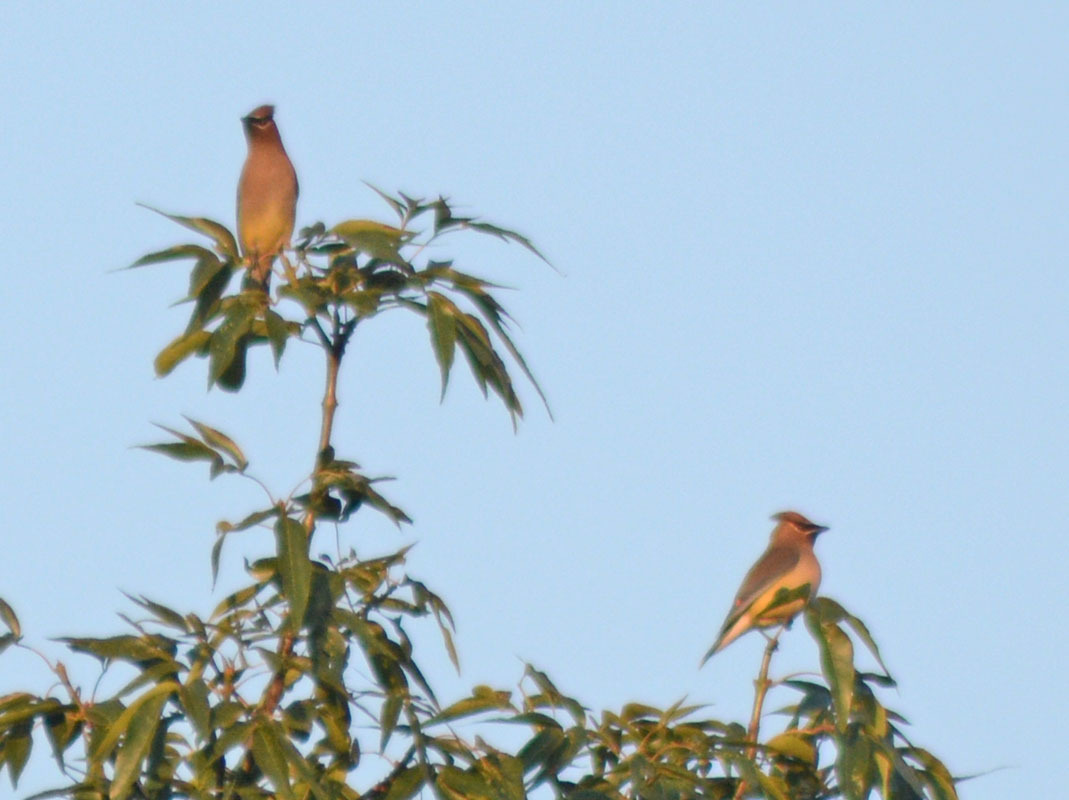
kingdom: Animalia
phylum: Chordata
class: Aves
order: Passeriformes
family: Bombycillidae
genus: Bombycilla
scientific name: Bombycilla cedrorum
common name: Cedar waxwing
